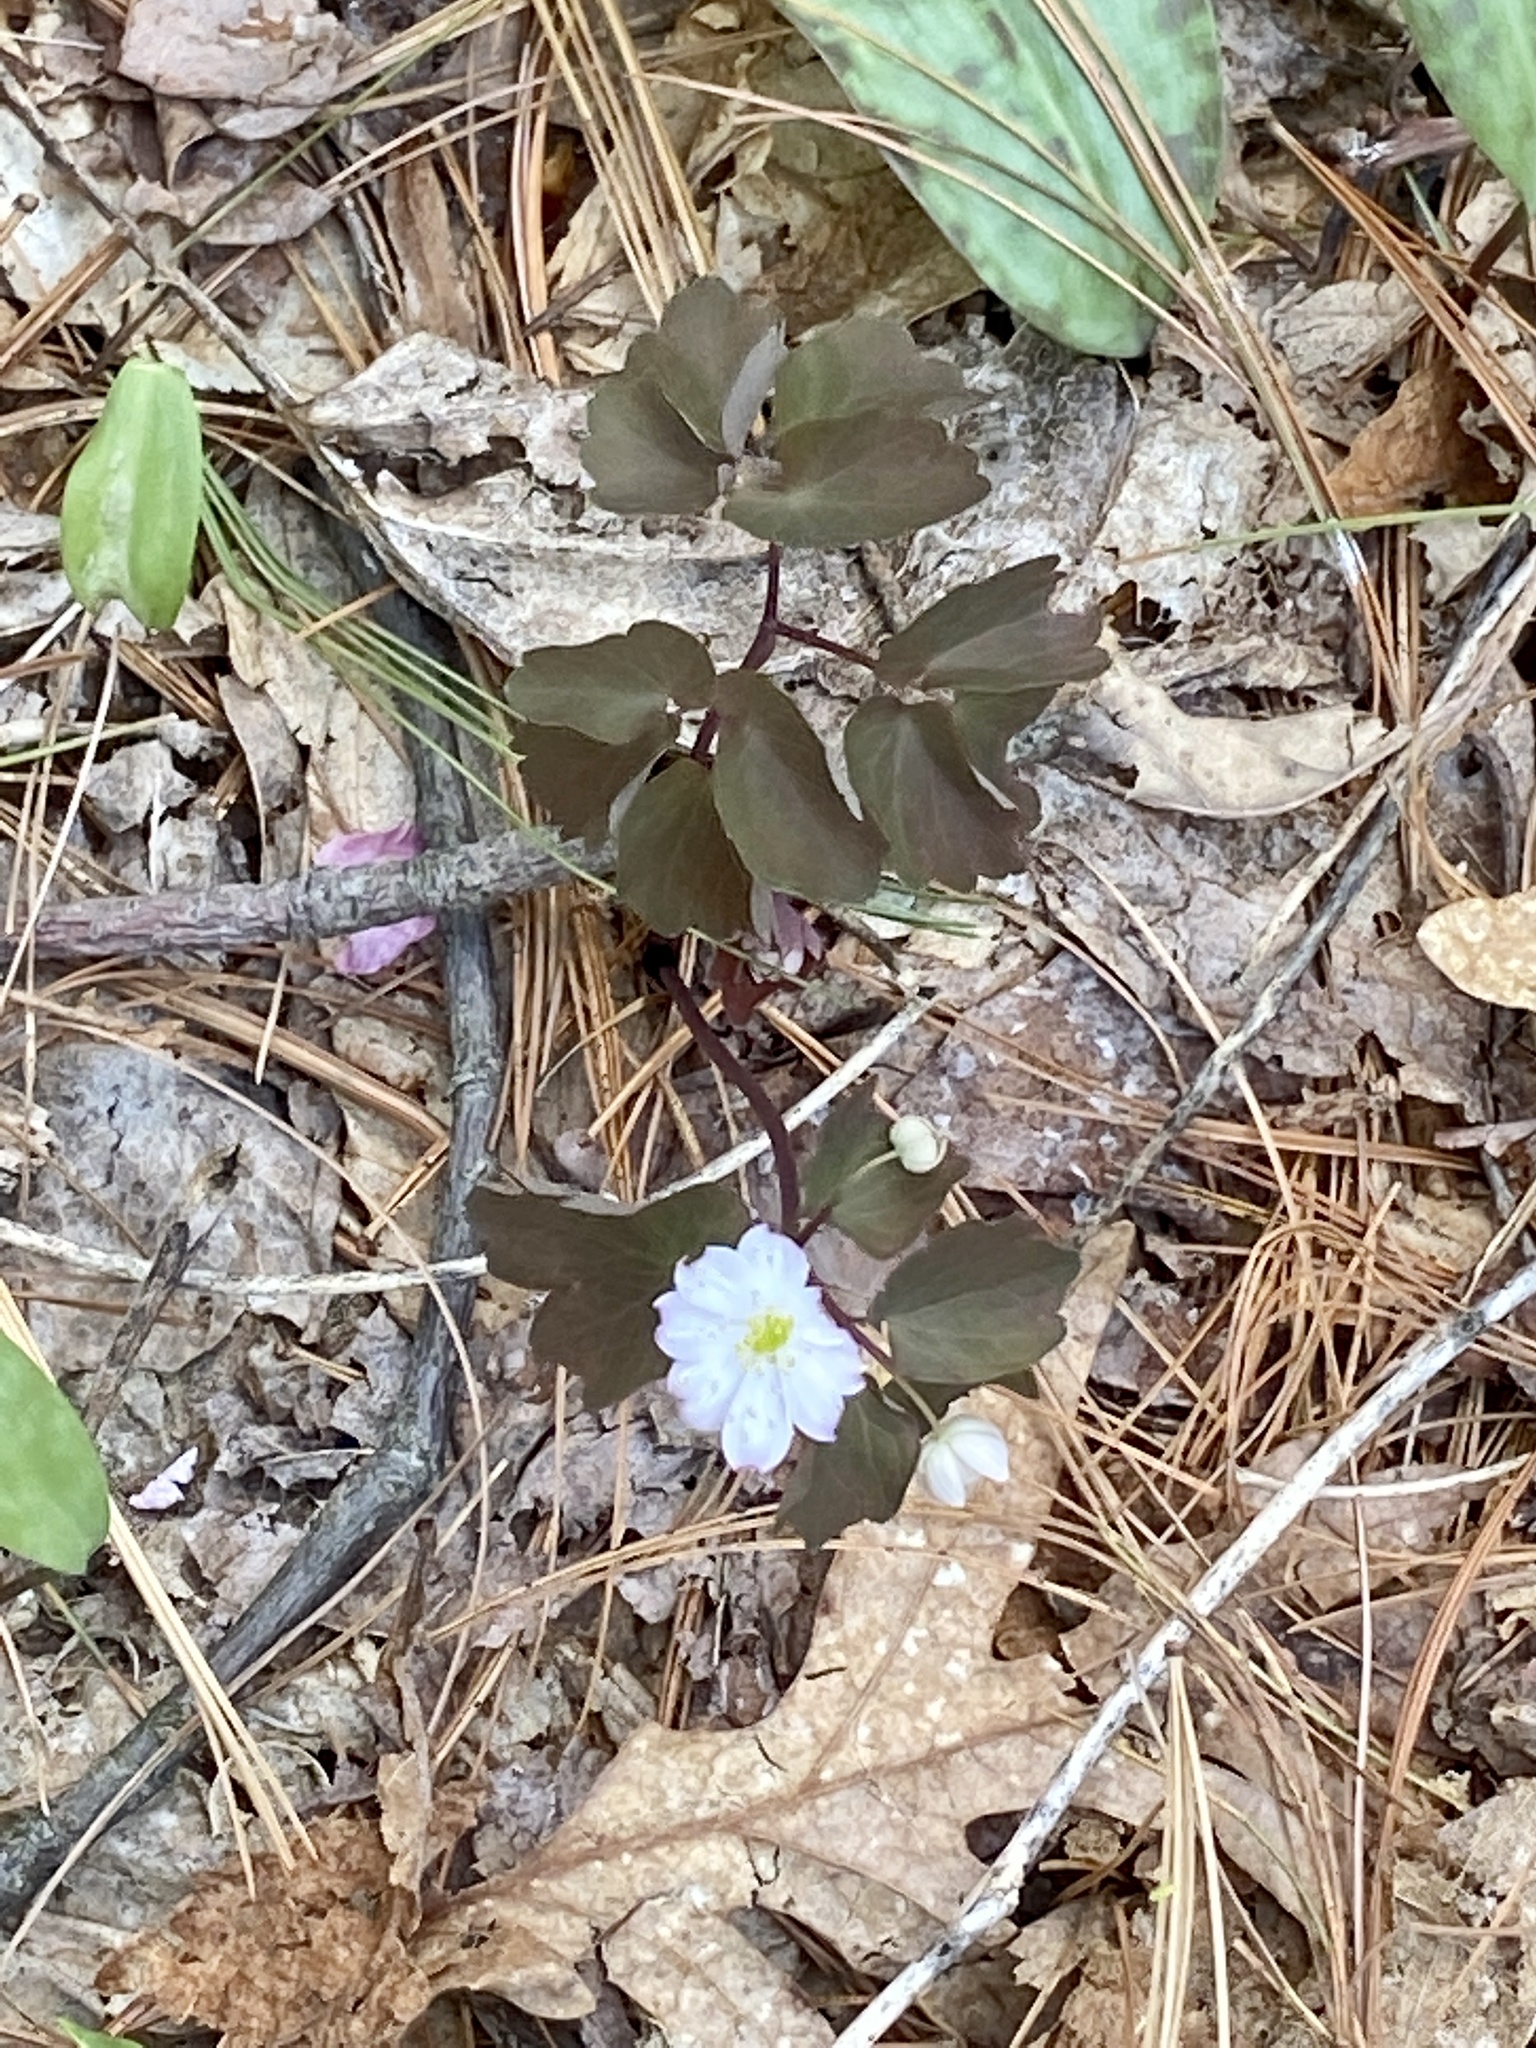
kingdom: Plantae
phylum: Tracheophyta
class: Magnoliopsida
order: Ranunculales
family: Ranunculaceae
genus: Thalictrum
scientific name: Thalictrum thalictroides
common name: Rue-anemone
